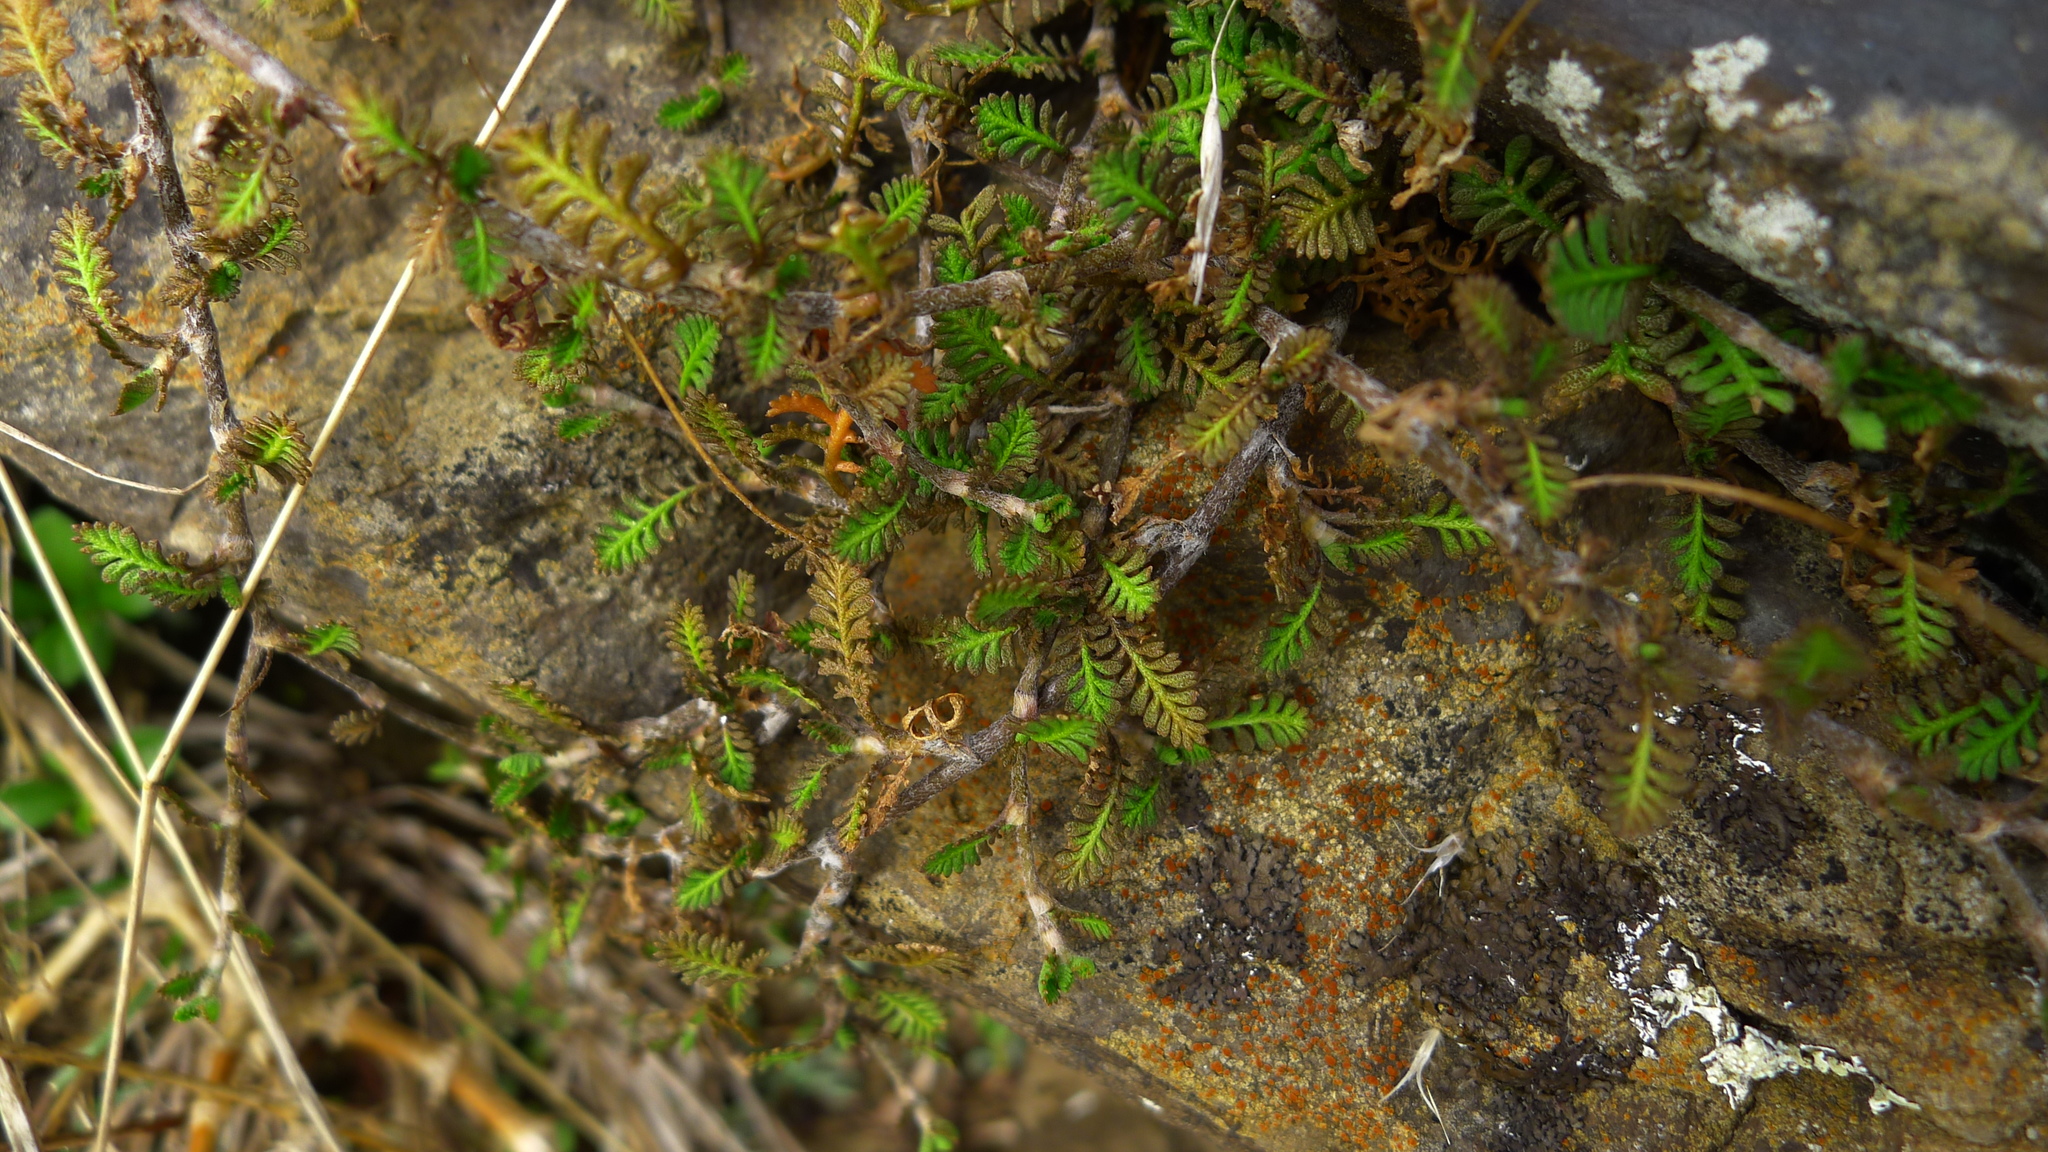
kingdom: Plantae
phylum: Tracheophyta
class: Magnoliopsida
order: Asterales
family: Asteraceae
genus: Leptinella
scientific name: Leptinella minor
